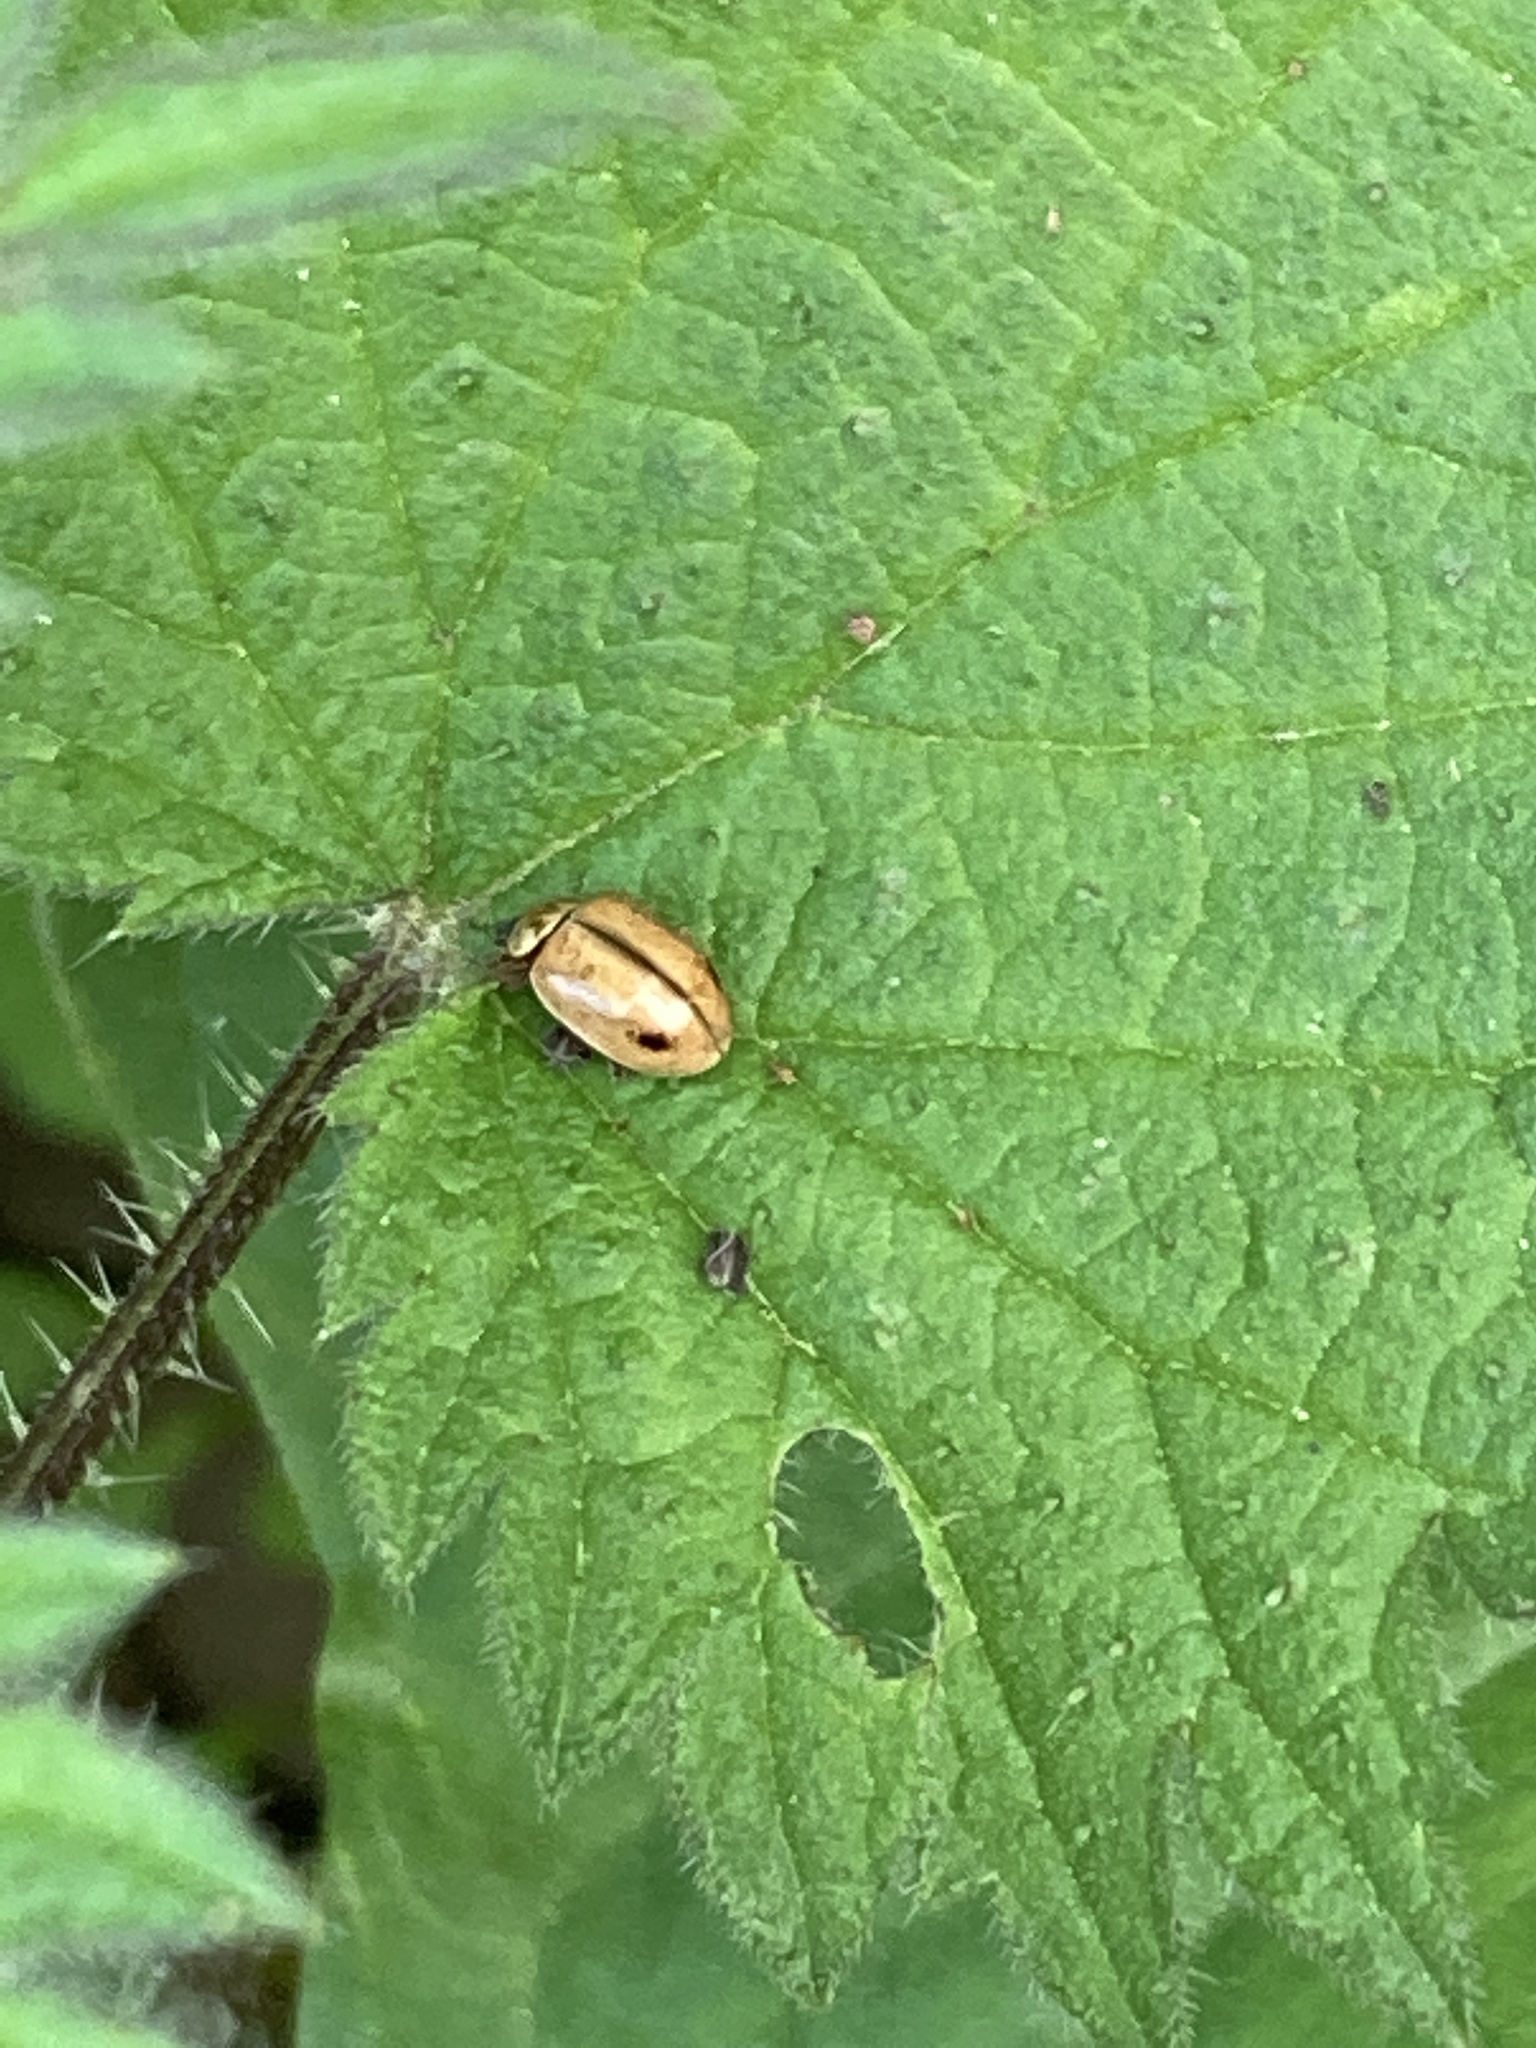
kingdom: Animalia
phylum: Arthropoda
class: Insecta
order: Coleoptera
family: Coccinellidae
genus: Aphidecta
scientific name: Aphidecta obliterata
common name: Larch ladybird
